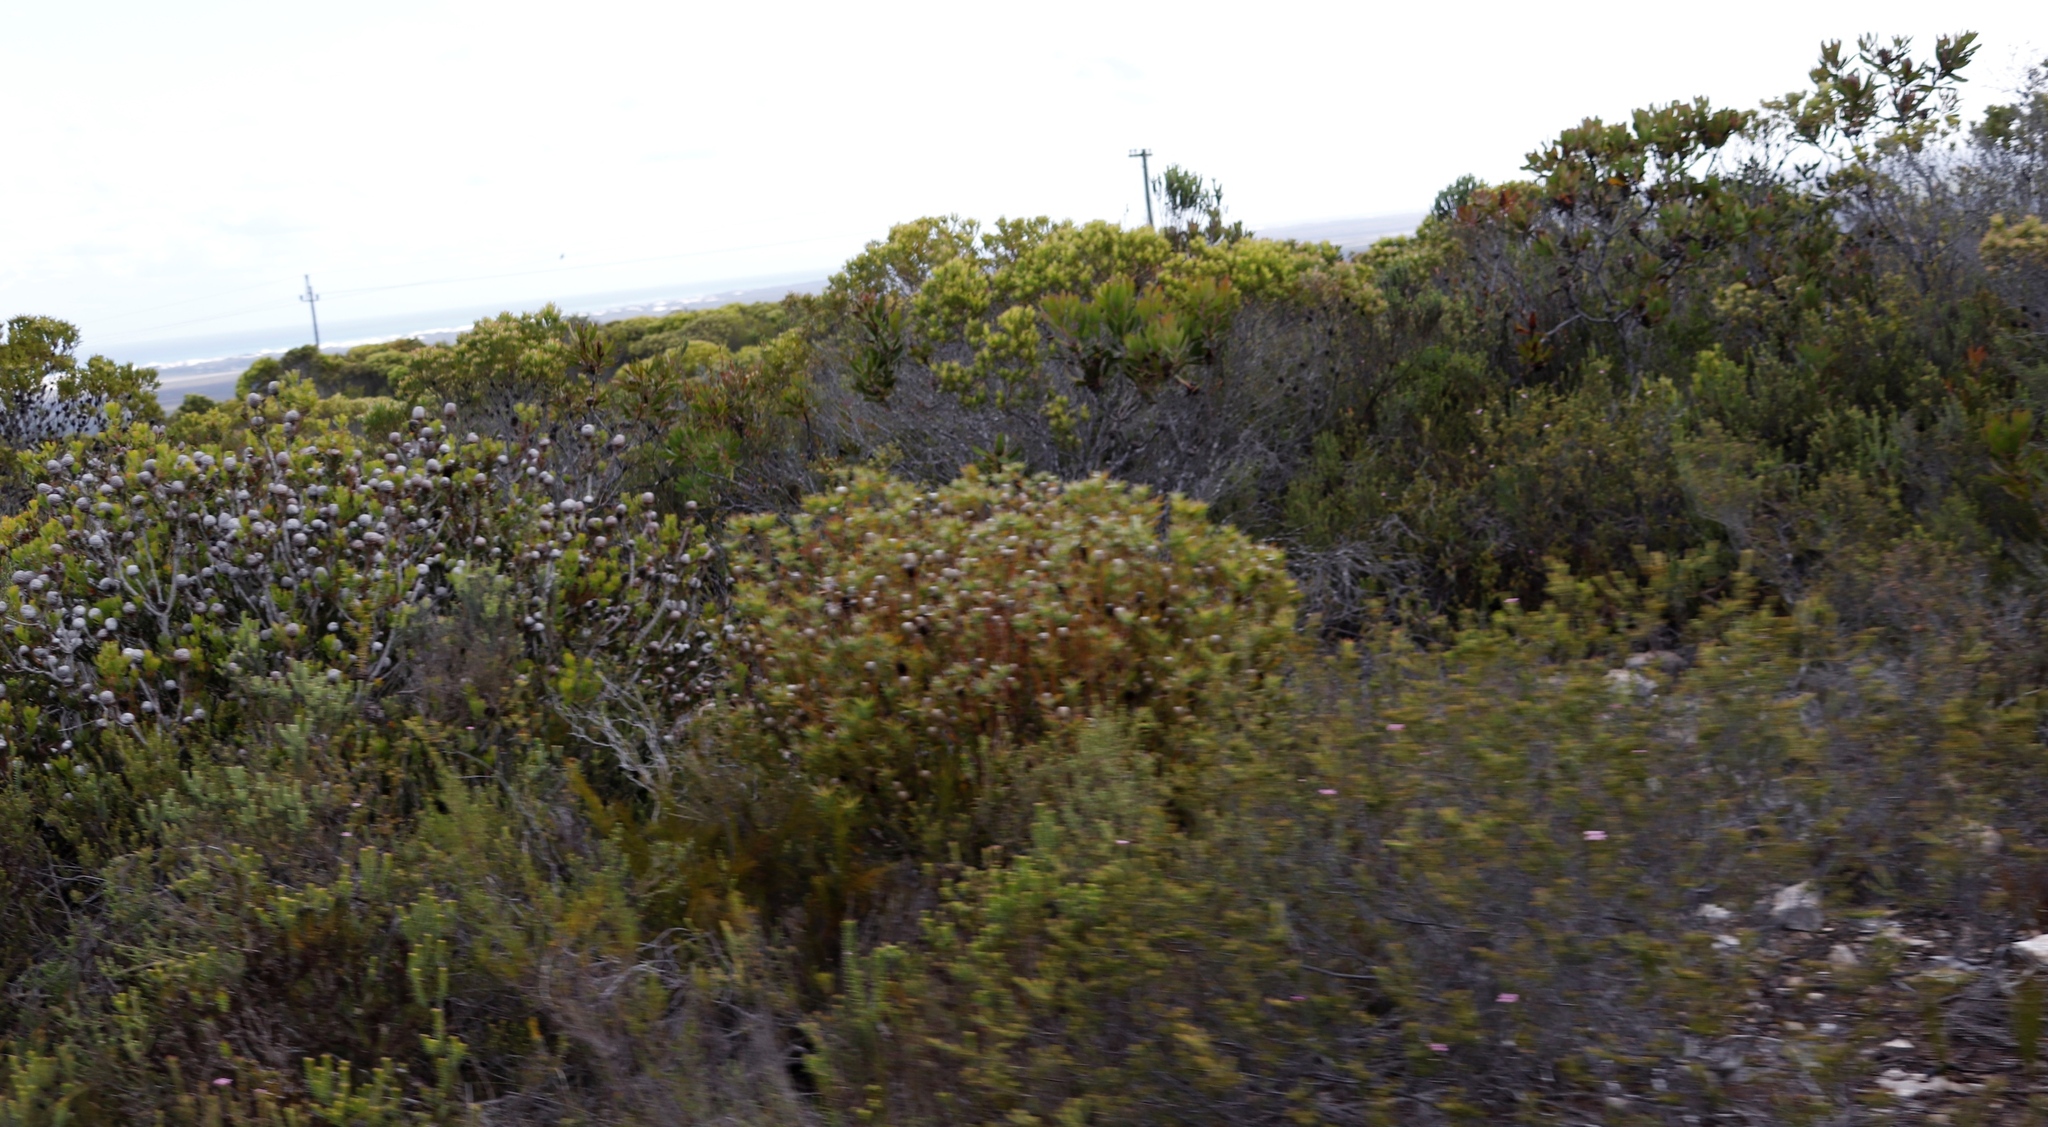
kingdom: Plantae
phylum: Tracheophyta
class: Magnoliopsida
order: Proteales
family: Proteaceae
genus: Leucadendron
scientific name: Leucadendron muirii
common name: Silver-ball conebush
